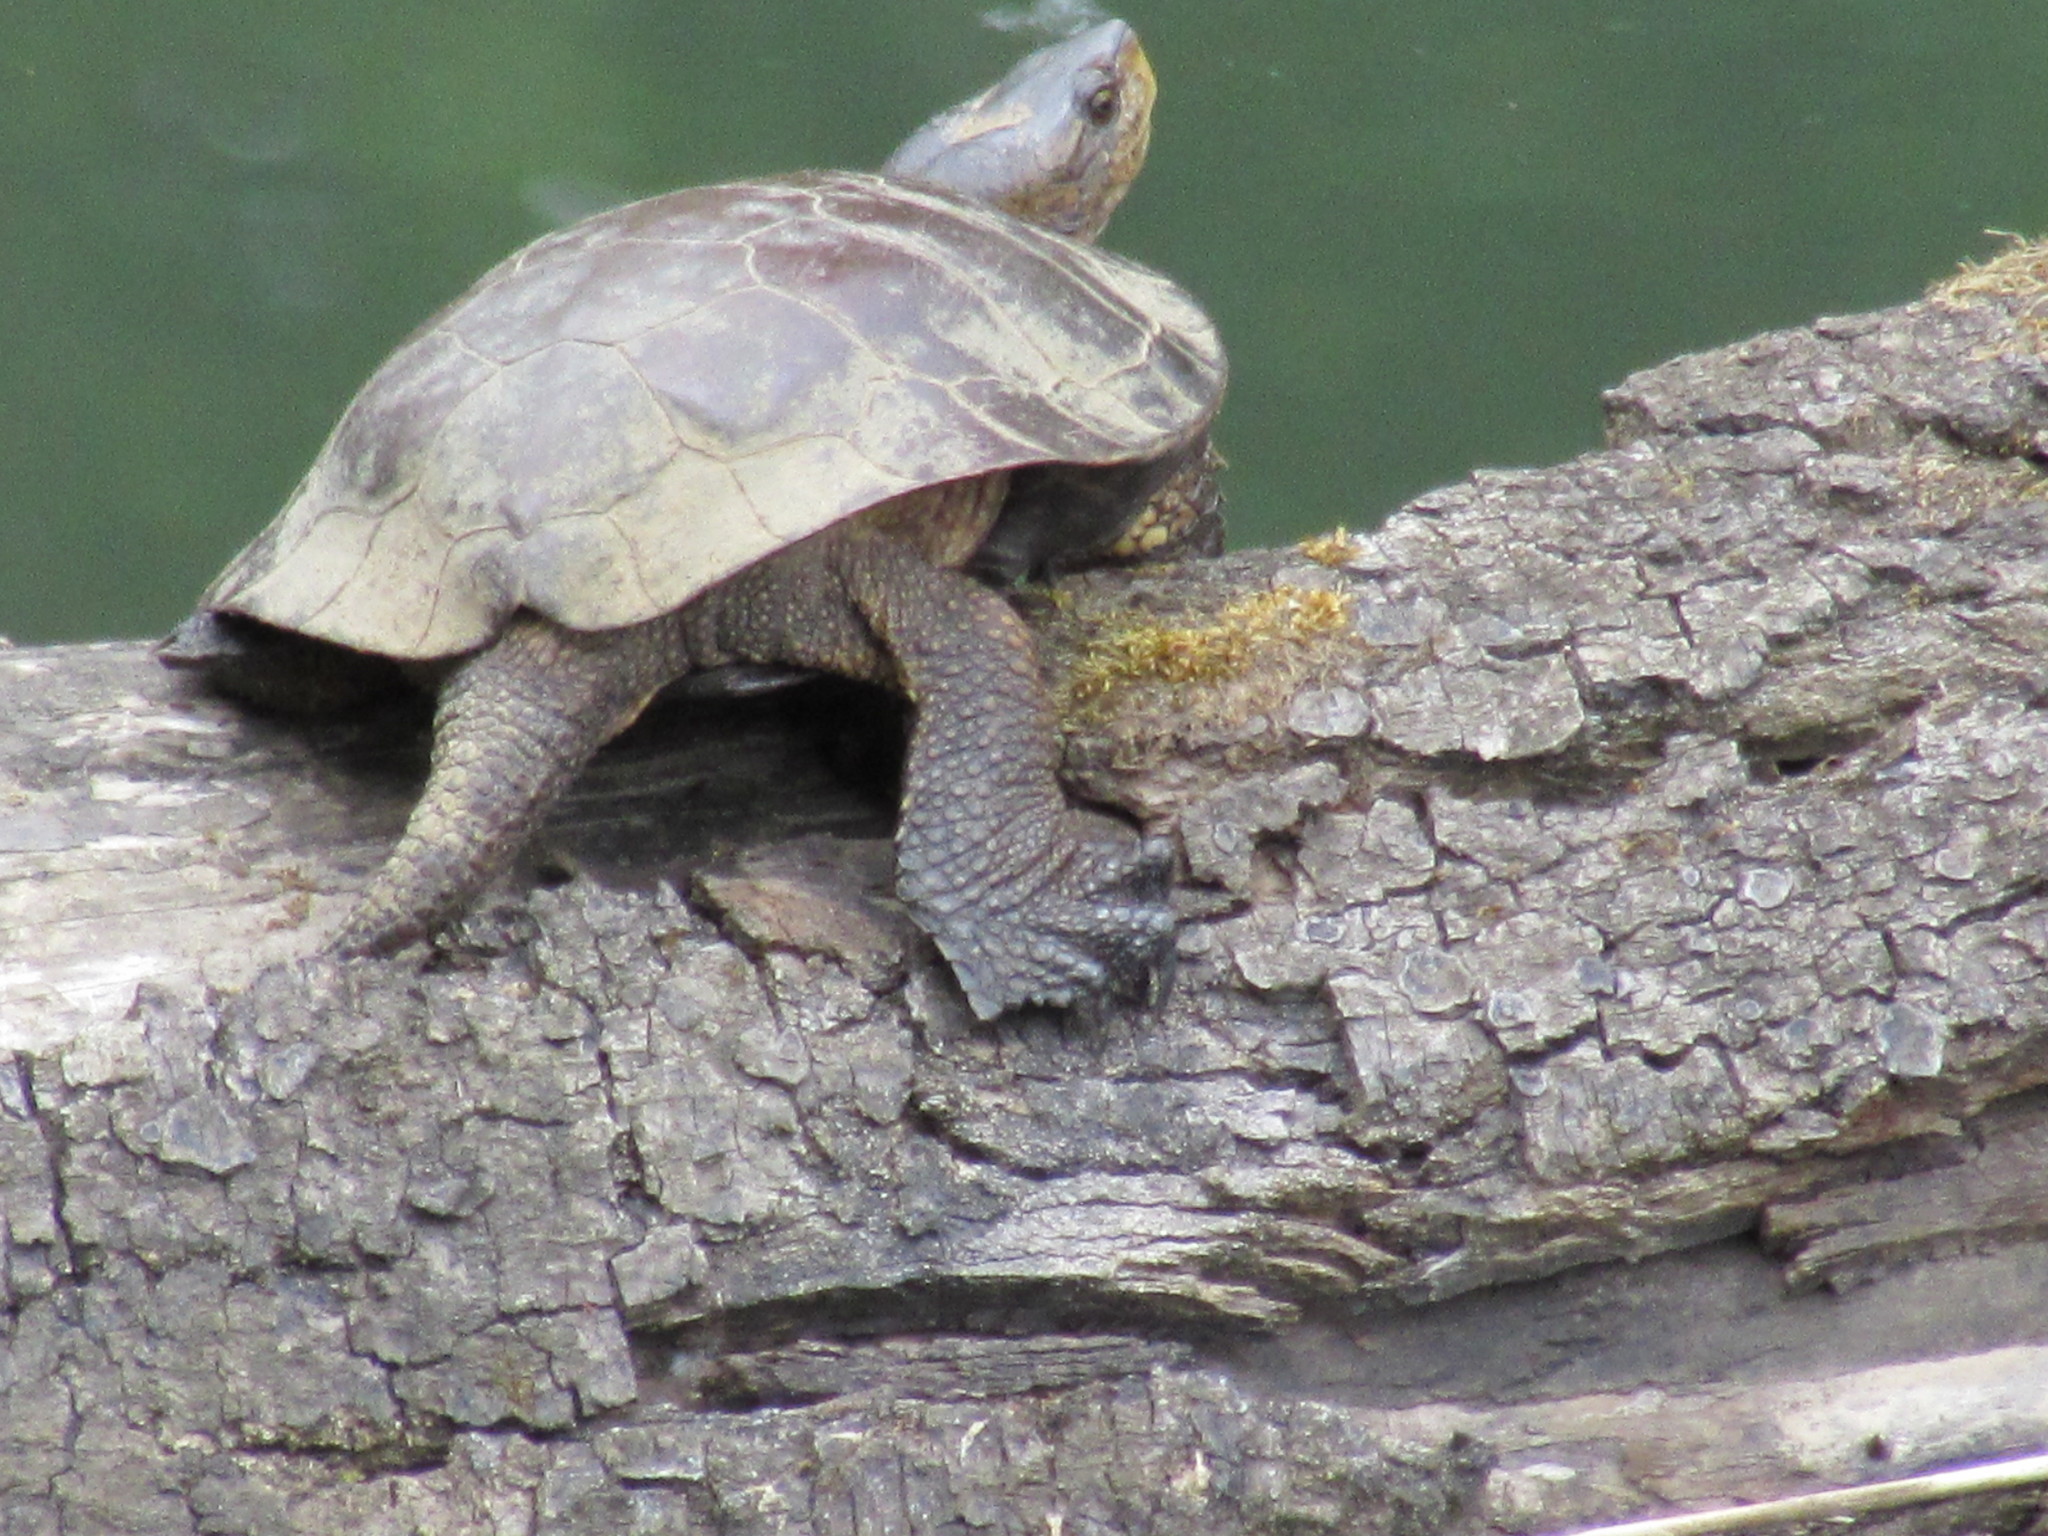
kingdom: Animalia
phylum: Chordata
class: Testudines
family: Emydidae
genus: Actinemys
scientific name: Actinemys marmorata
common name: Western pond turtle
